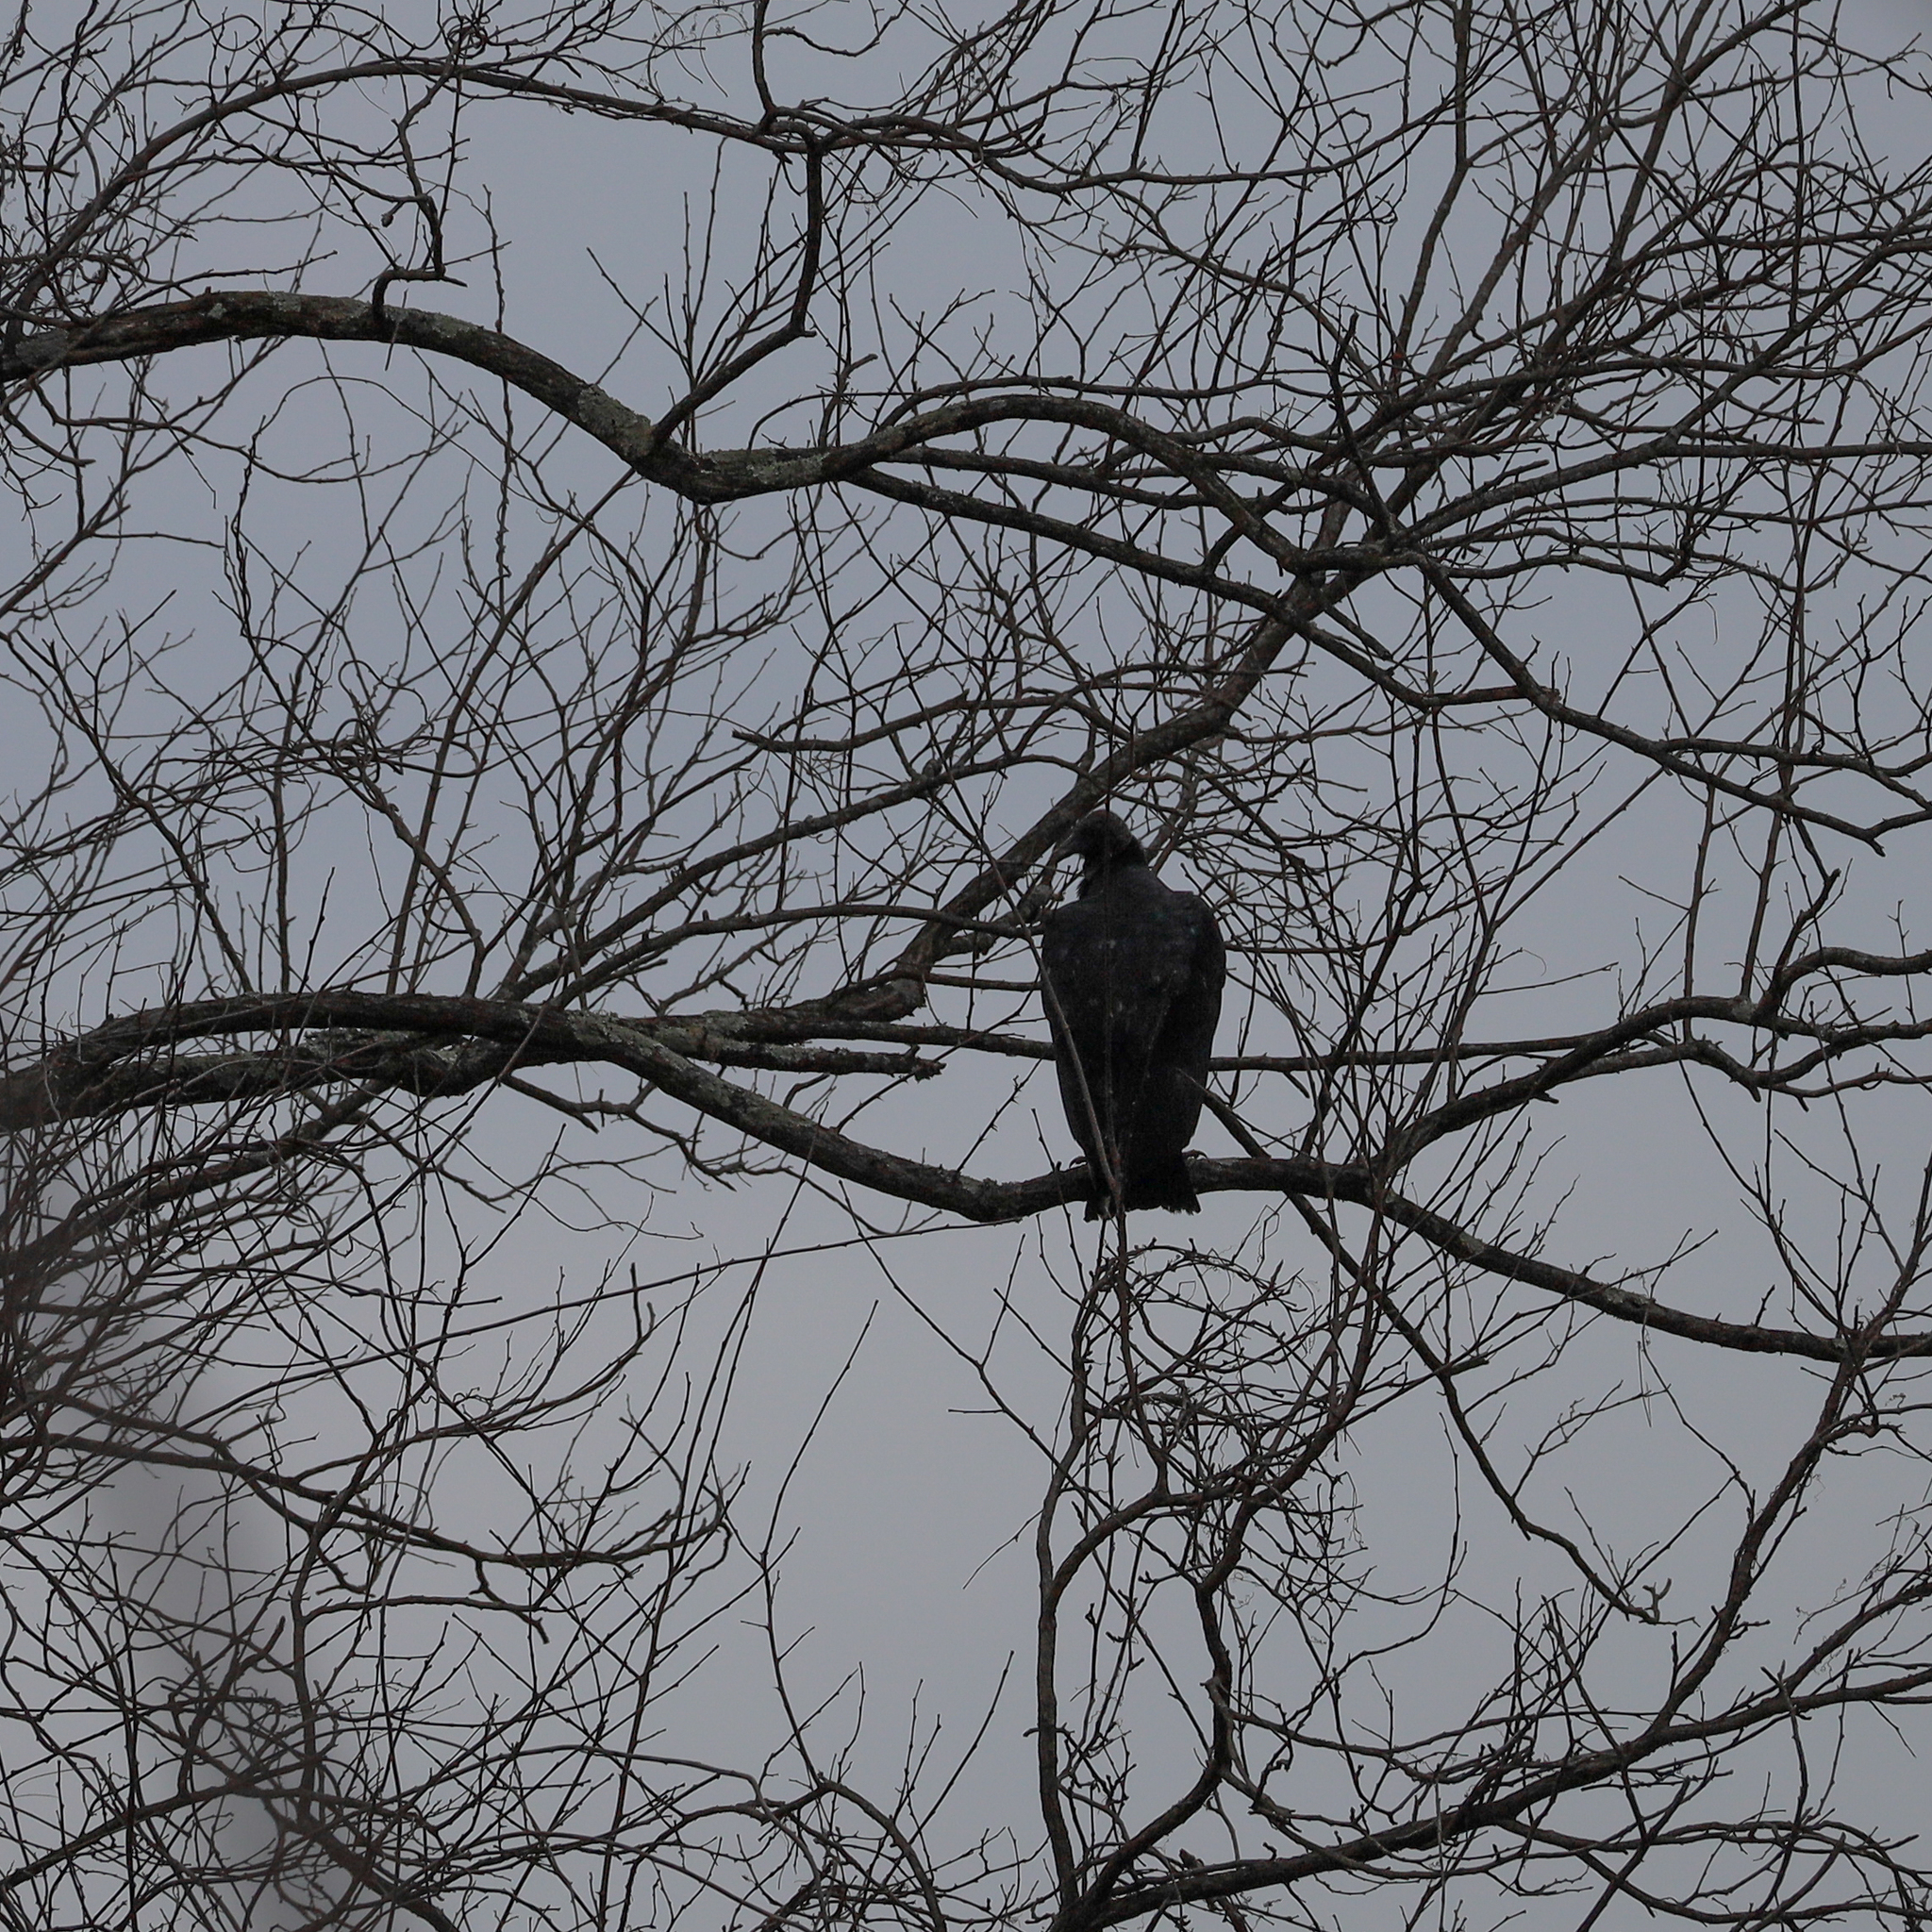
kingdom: Animalia
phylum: Chordata
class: Aves
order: Accipitriformes
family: Cathartidae
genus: Coragyps
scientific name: Coragyps atratus
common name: Black vulture
